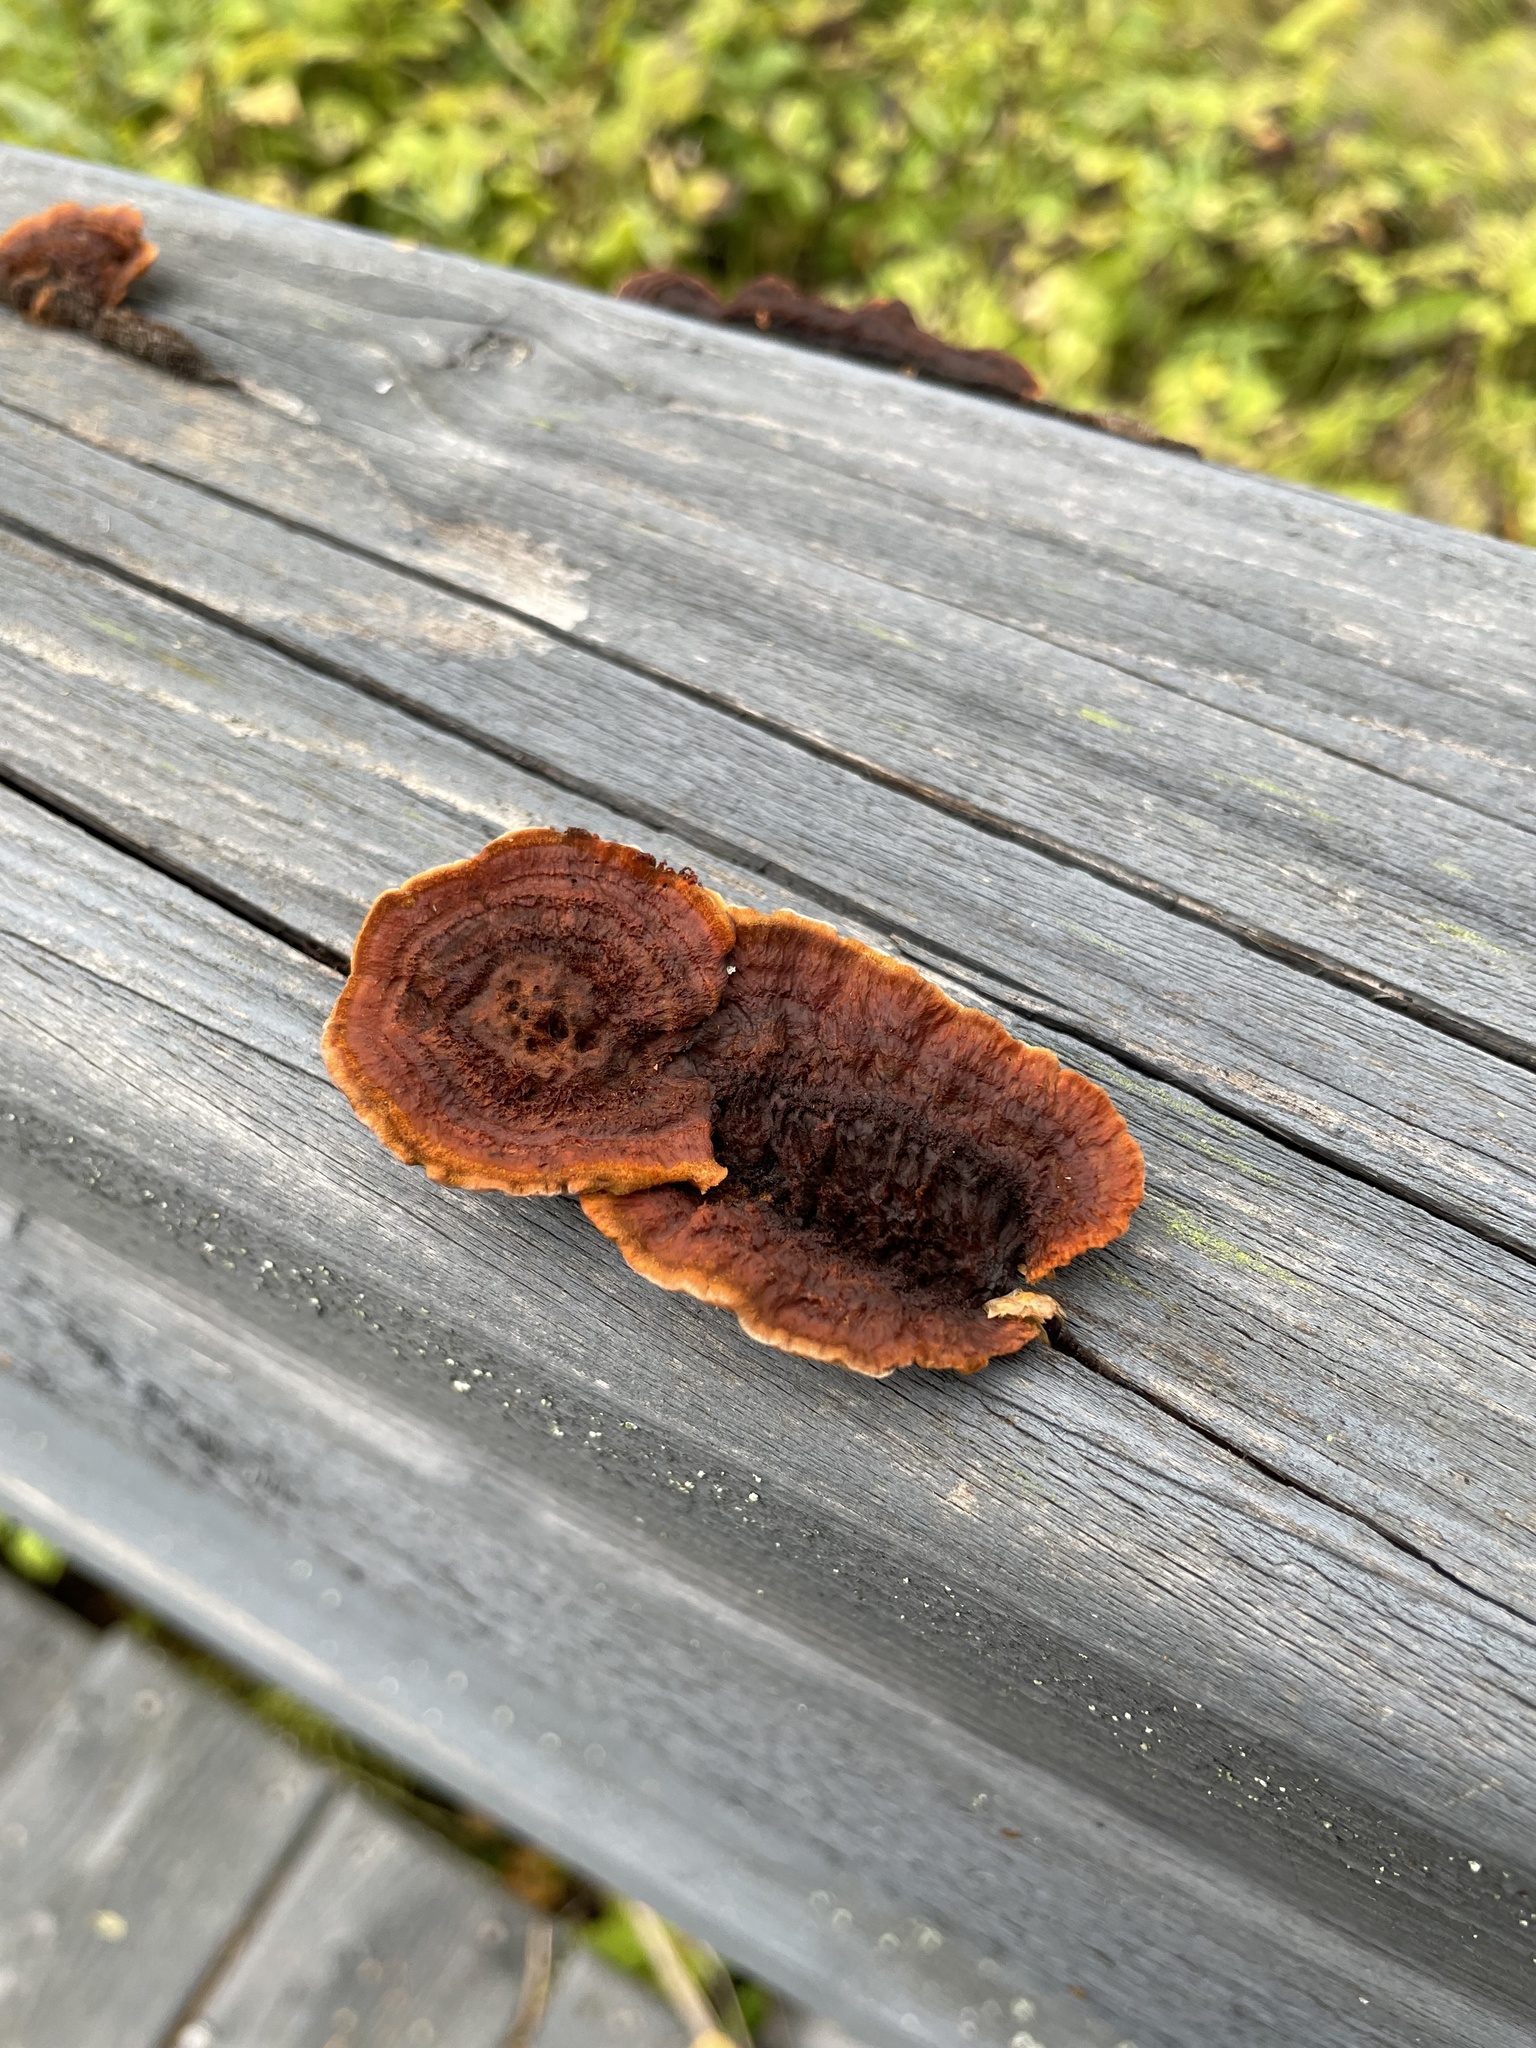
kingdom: Fungi
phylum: Basidiomycota
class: Agaricomycetes
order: Gloeophyllales
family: Gloeophyllaceae
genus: Gloeophyllum
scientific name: Gloeophyllum sepiarium
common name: Conifer mazegill
